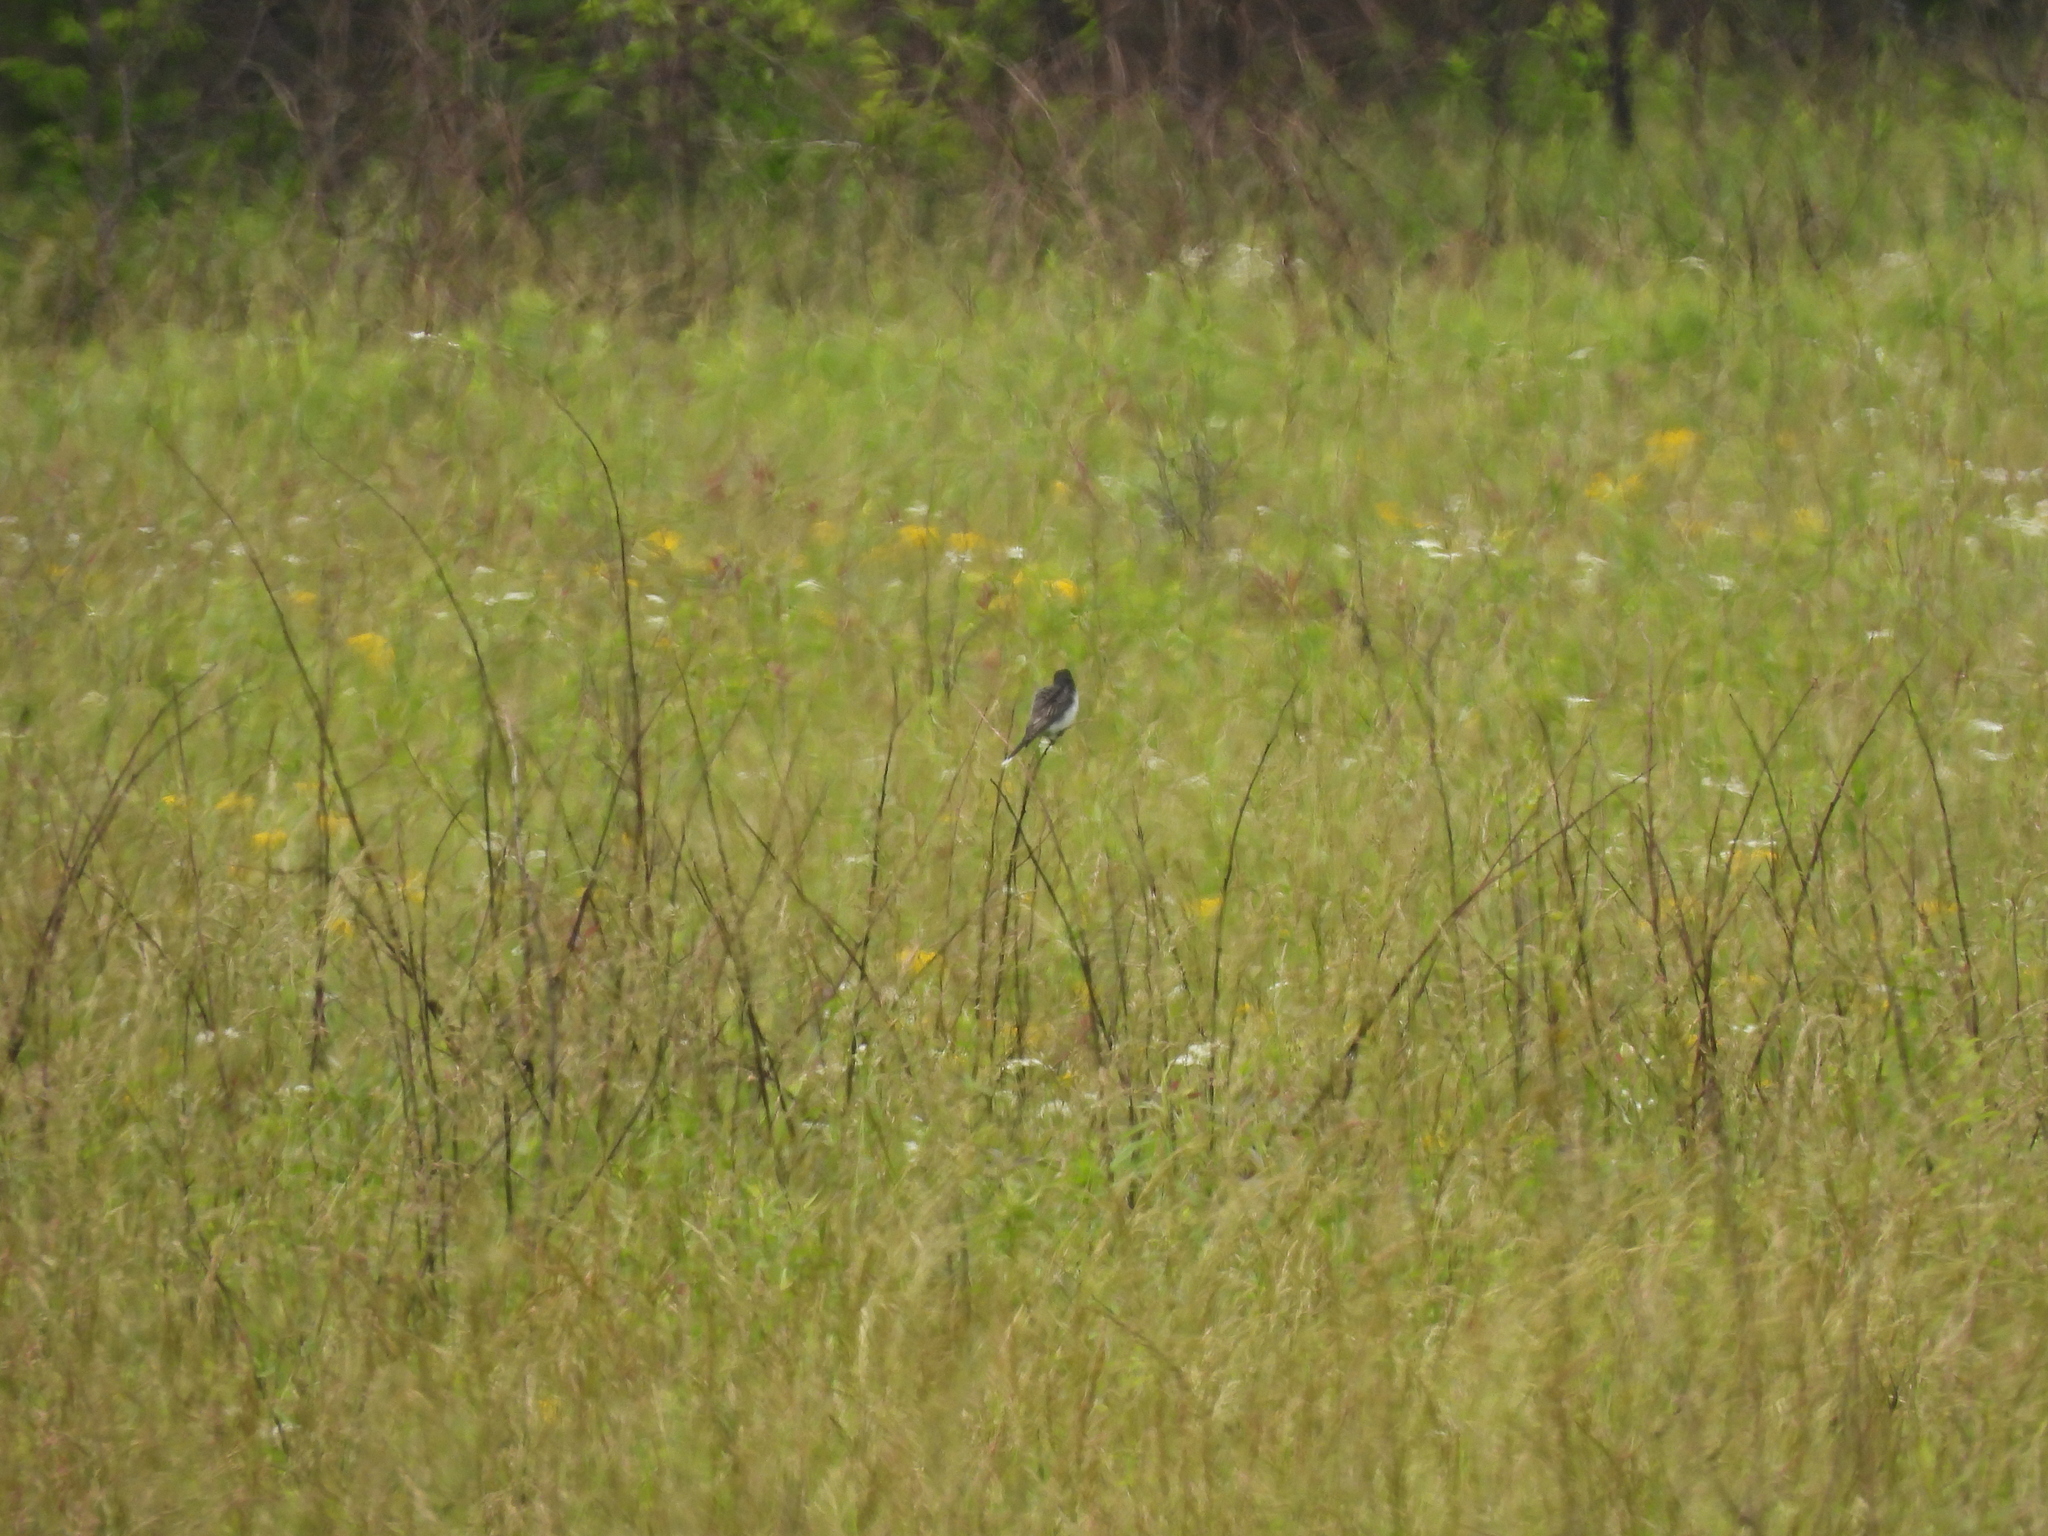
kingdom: Animalia
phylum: Chordata
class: Aves
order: Passeriformes
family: Tyrannidae
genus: Tyrannus
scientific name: Tyrannus tyrannus
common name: Eastern kingbird
